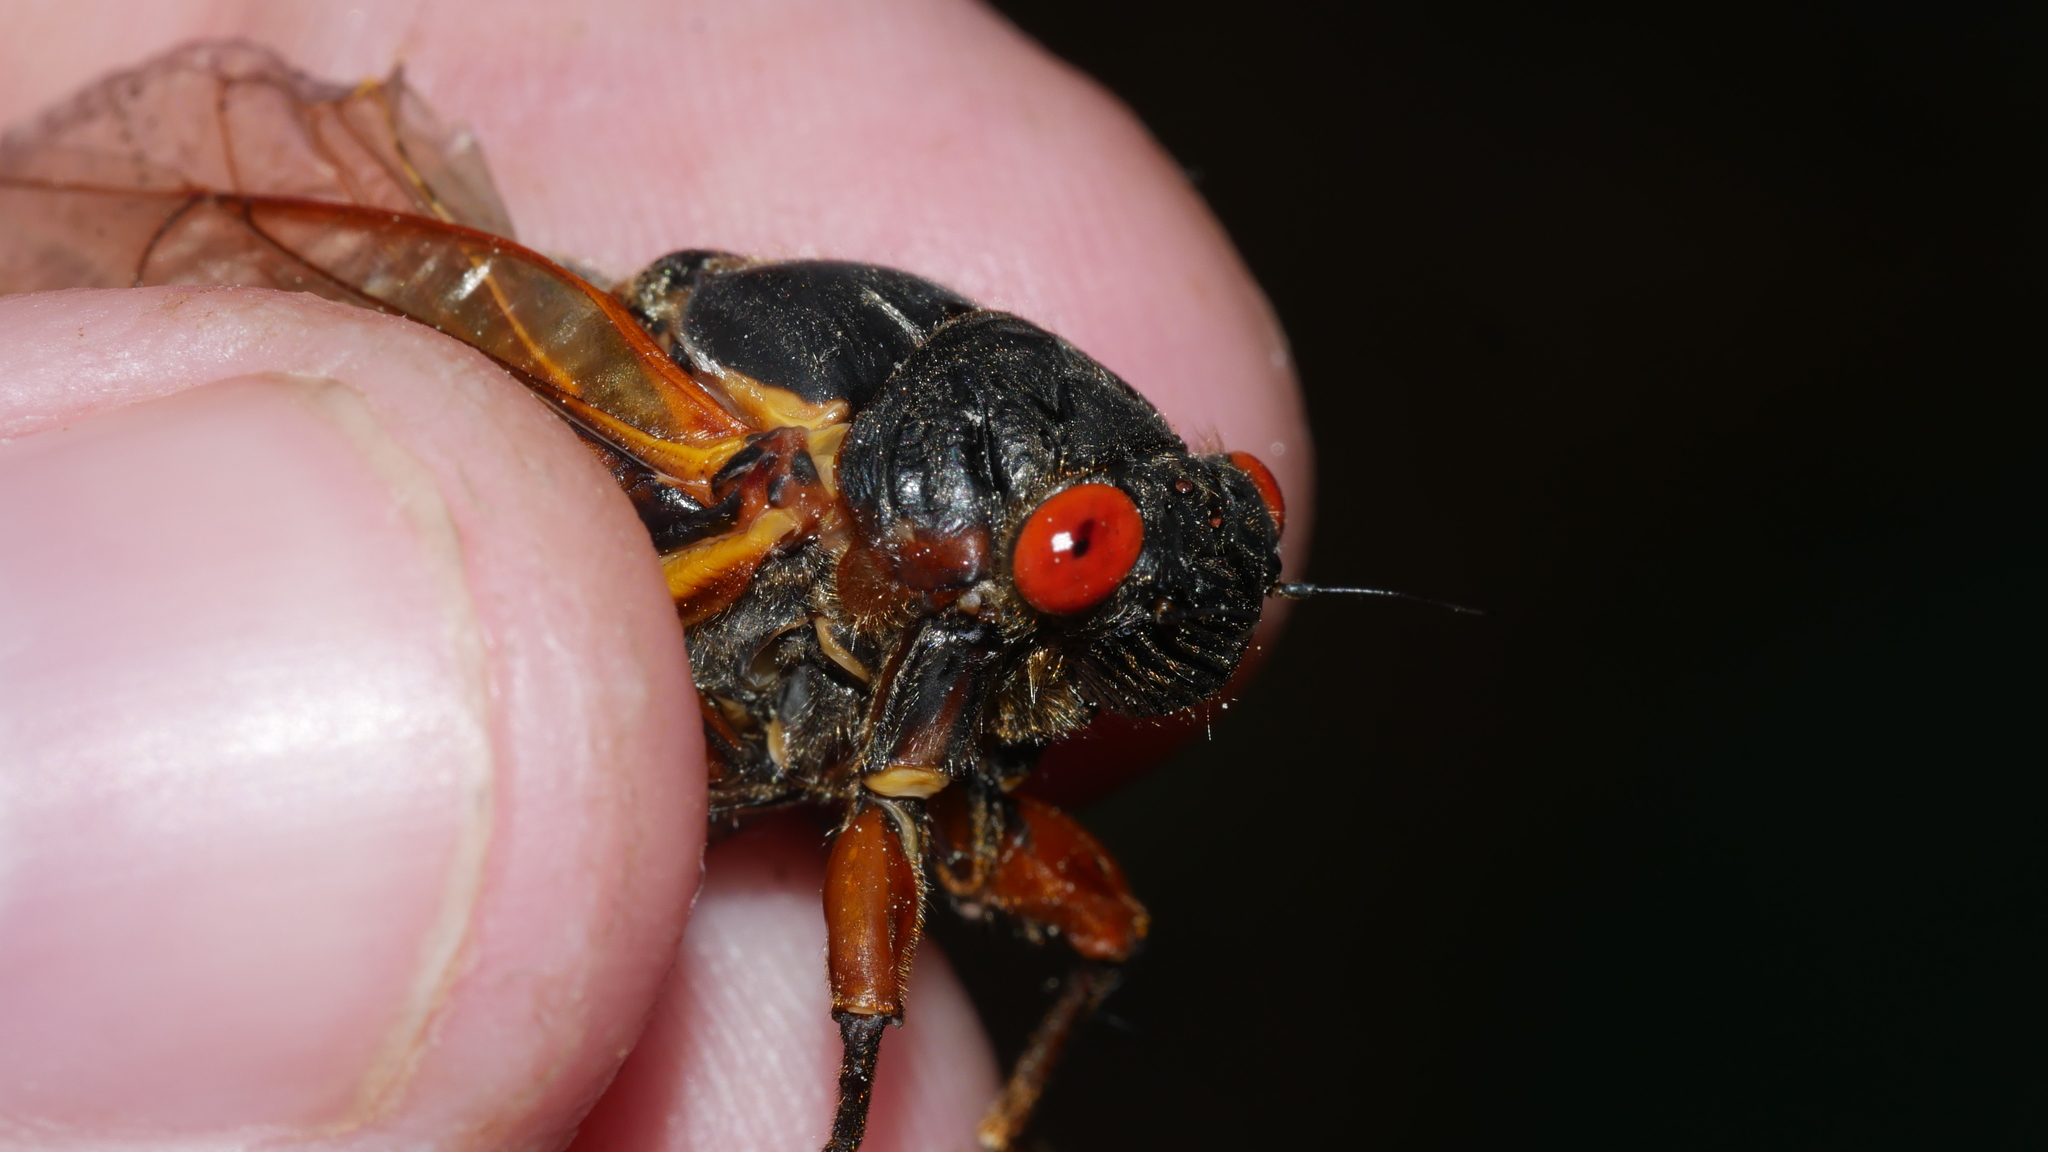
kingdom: Animalia
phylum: Arthropoda
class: Insecta
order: Hemiptera
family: Cicadidae
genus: Magicicada
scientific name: Magicicada septendecim
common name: Periodical cicada
